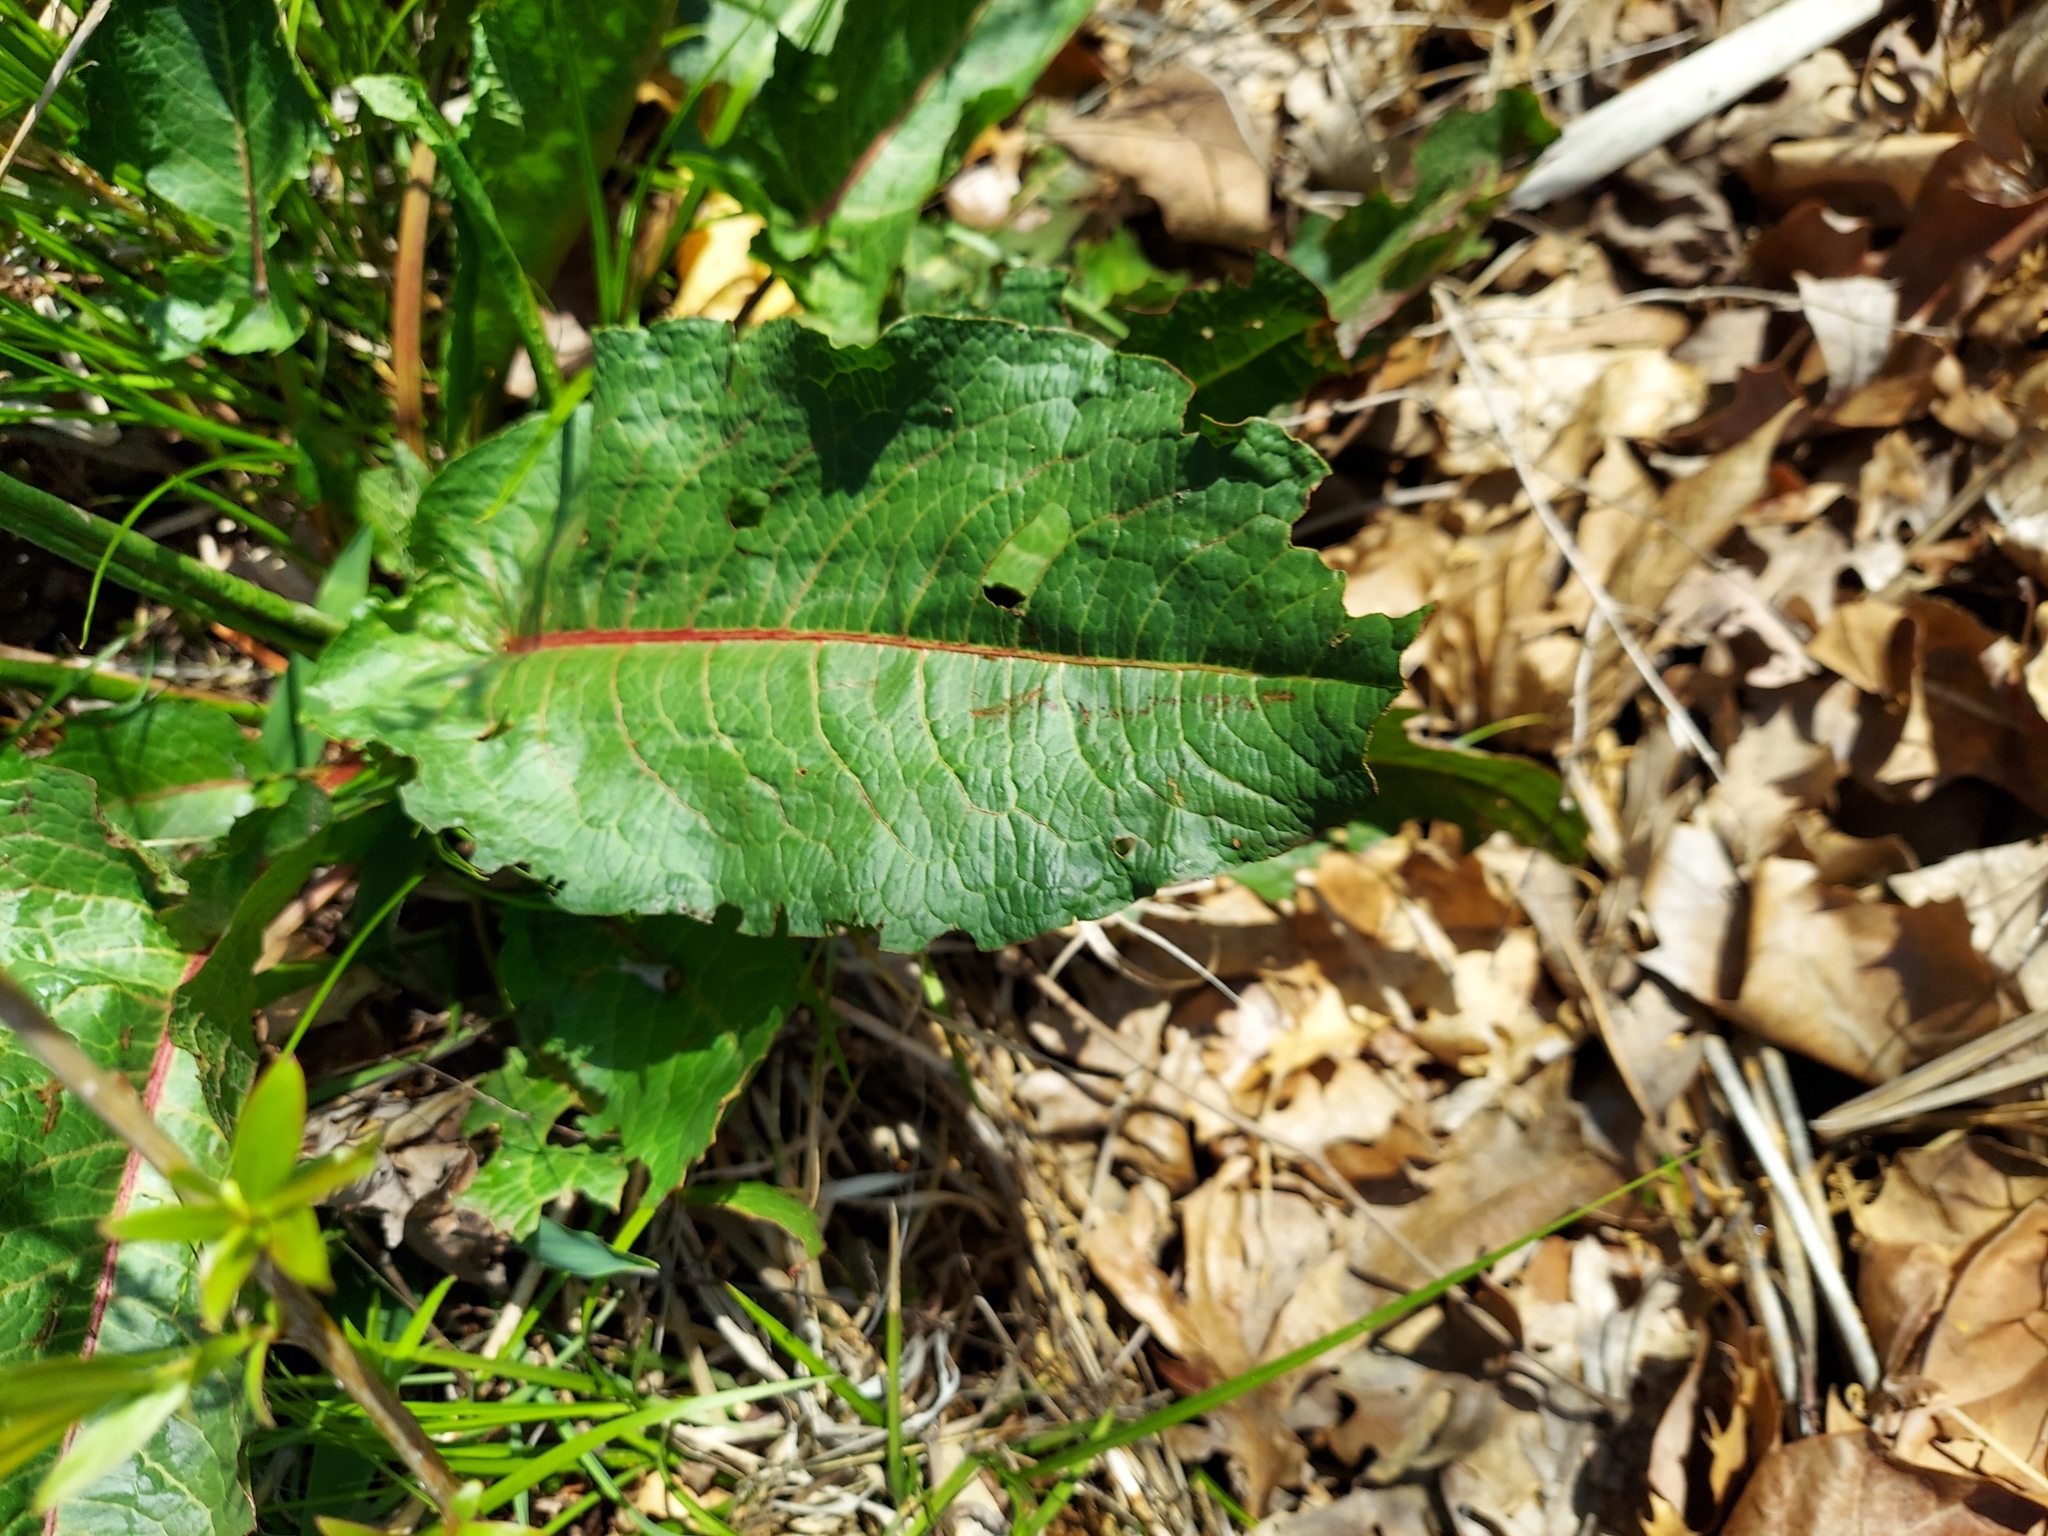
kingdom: Plantae
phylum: Tracheophyta
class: Magnoliopsida
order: Caryophyllales
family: Polygonaceae
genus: Rumex
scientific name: Rumex crispus
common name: Curled dock
